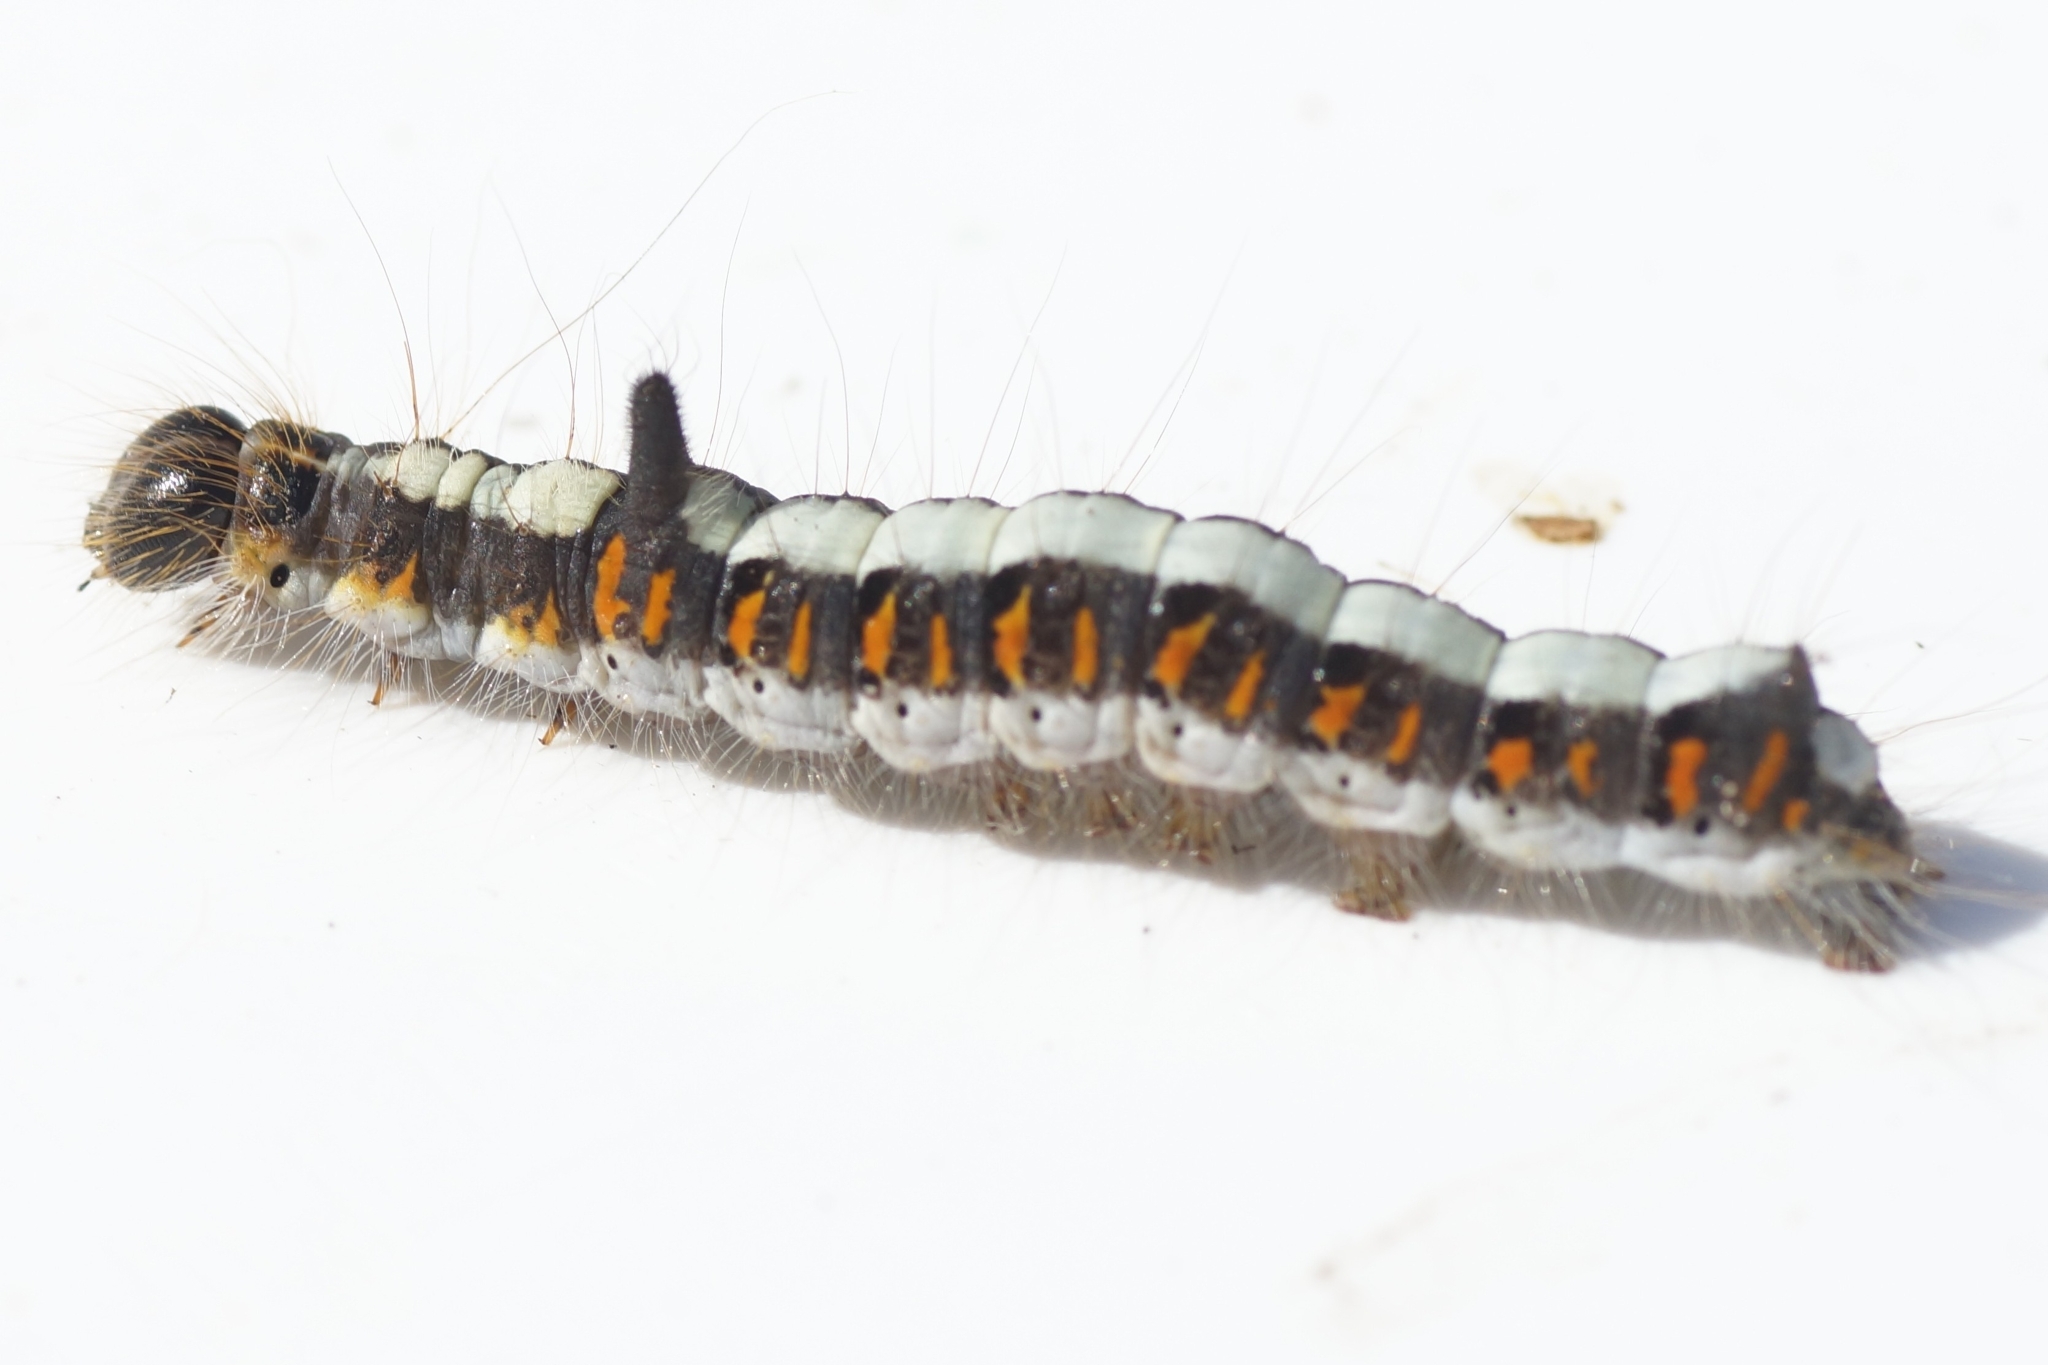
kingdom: Animalia
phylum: Arthropoda
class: Insecta
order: Lepidoptera
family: Noctuidae
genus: Acronicta
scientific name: Acronicta psi
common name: Grey dagger
